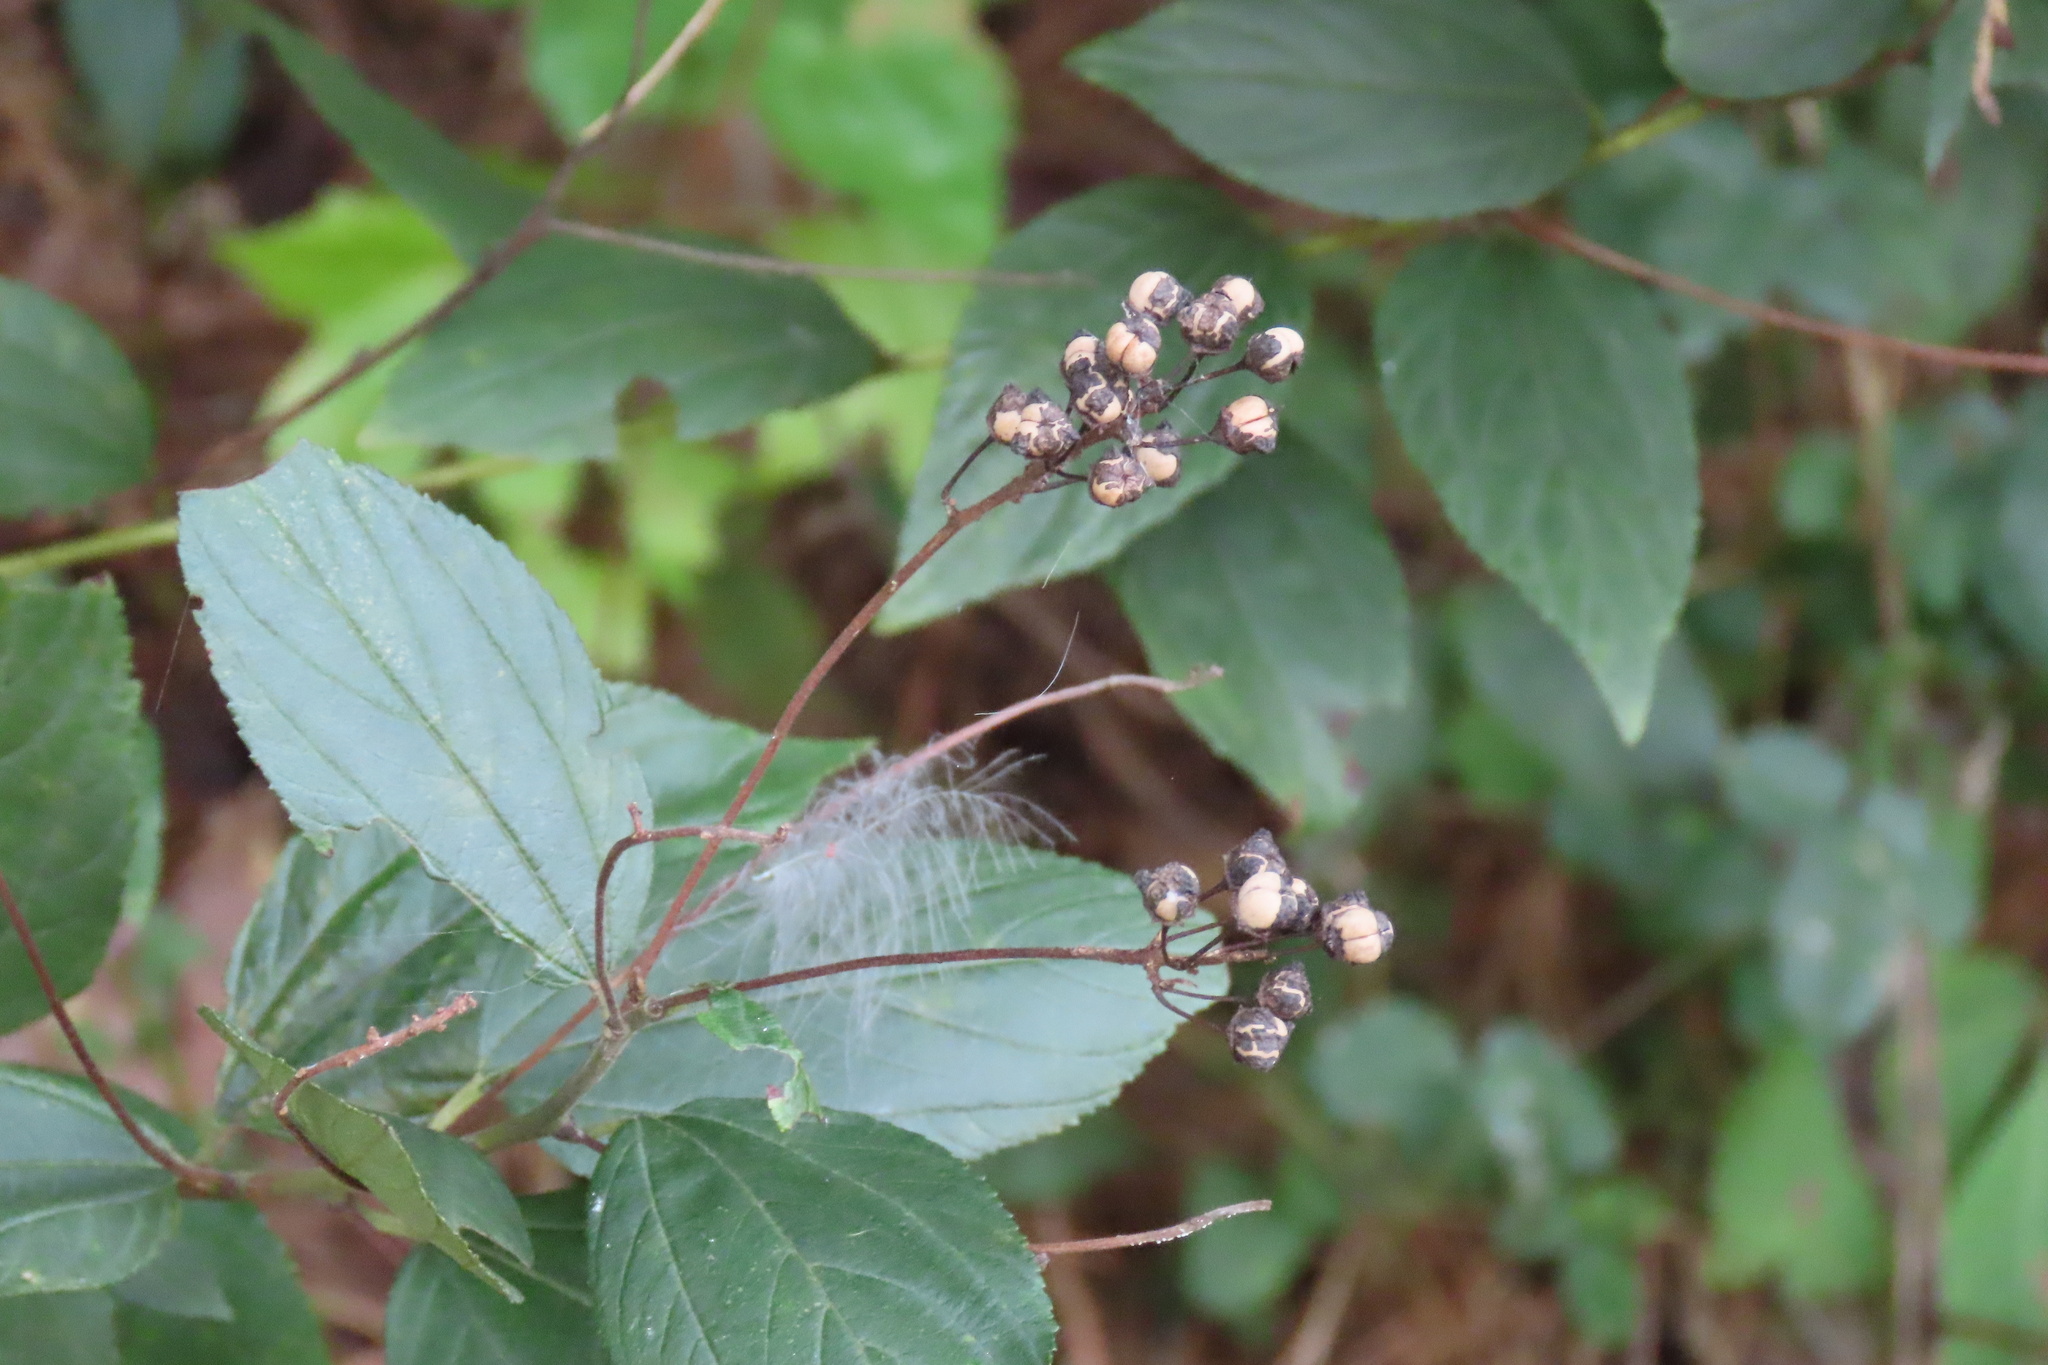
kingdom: Plantae
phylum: Tracheophyta
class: Magnoliopsida
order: Rosales
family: Rhamnaceae
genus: Ceanothus
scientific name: Ceanothus americanus
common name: Redroot
